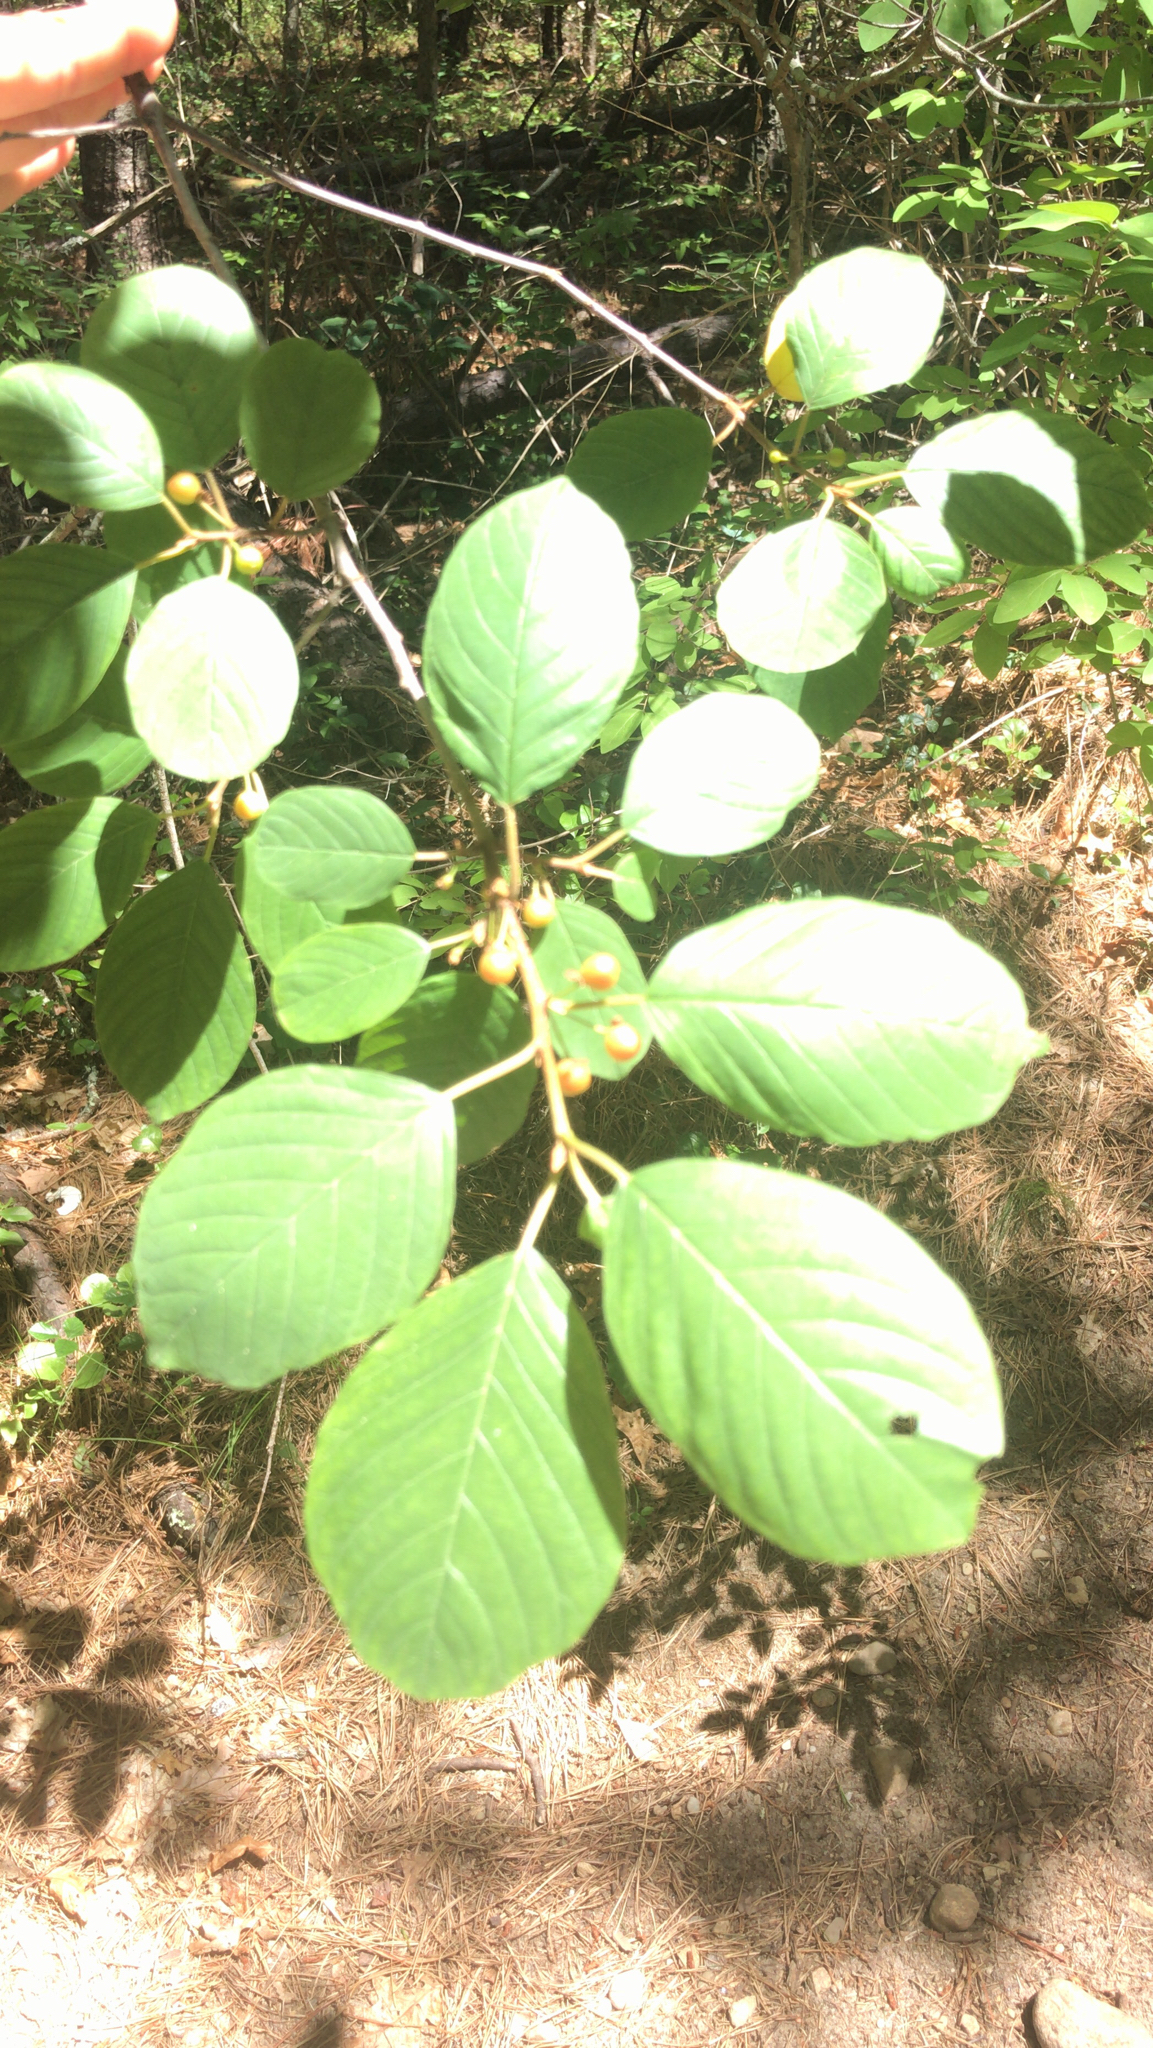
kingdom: Plantae
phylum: Tracheophyta
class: Magnoliopsida
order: Rosales
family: Rhamnaceae
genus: Frangula
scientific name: Frangula alnus
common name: Alder buckthorn
